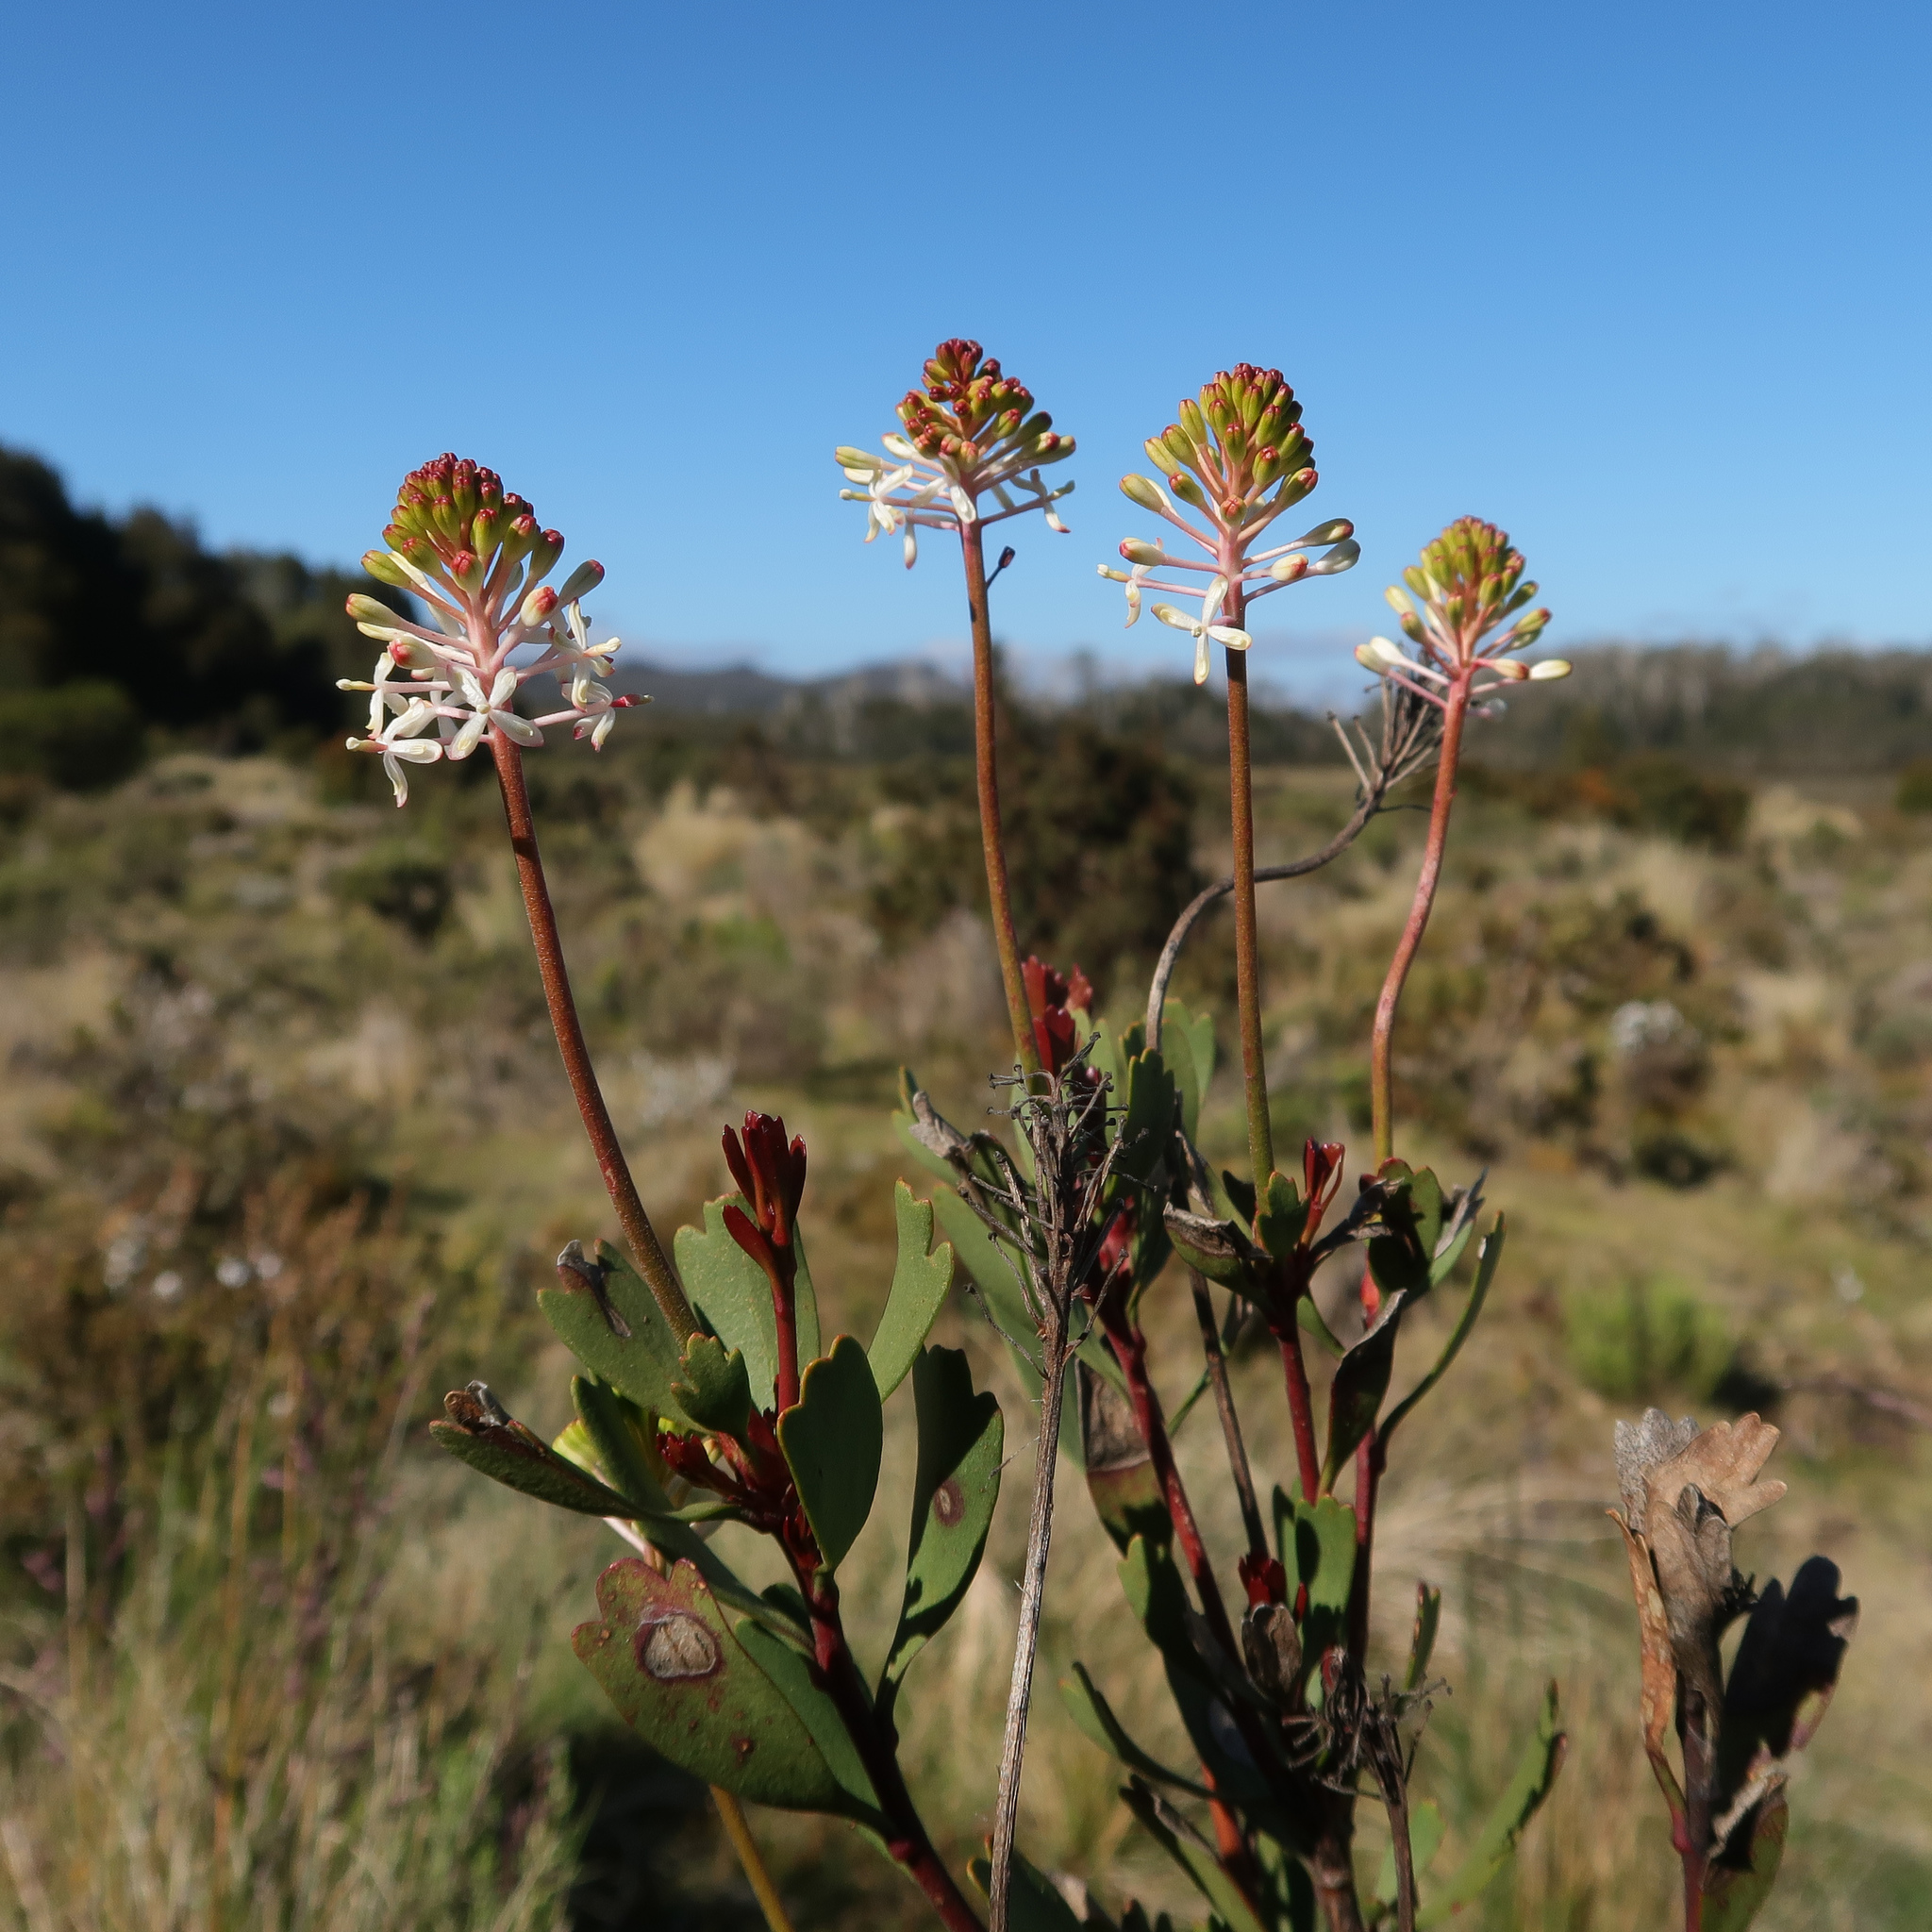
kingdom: Plantae
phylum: Tracheophyta
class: Magnoliopsida
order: Proteales
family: Proteaceae
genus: Bellendena
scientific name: Bellendena montana
